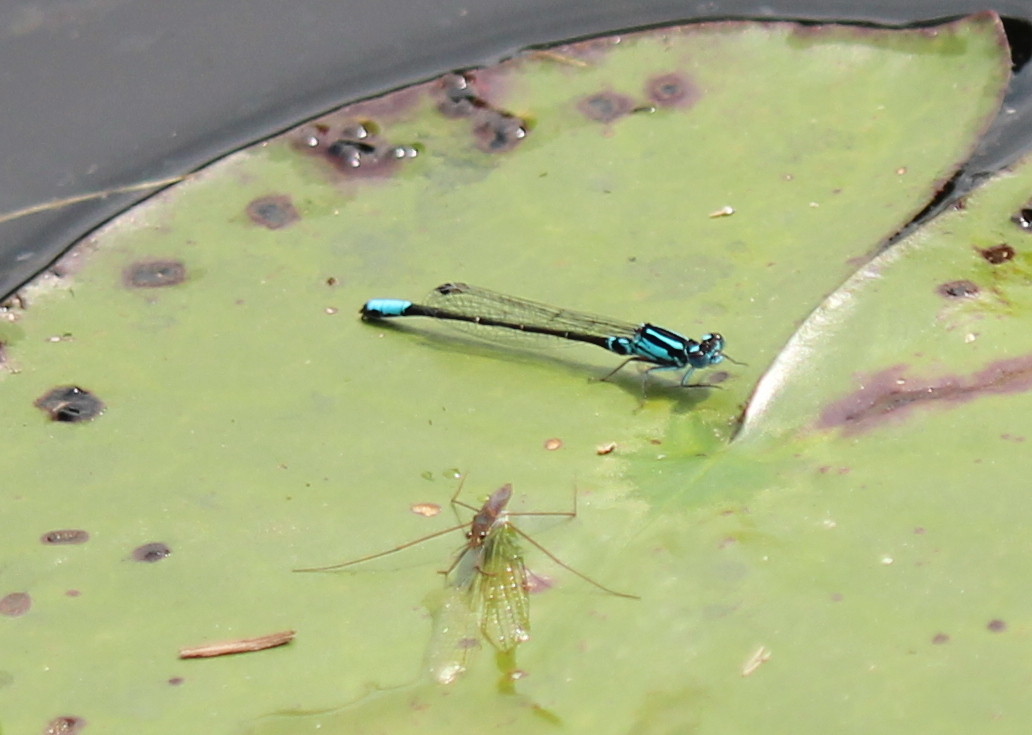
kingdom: Animalia
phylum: Arthropoda
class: Insecta
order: Odonata
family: Coenagrionidae
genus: Ischnura
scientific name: Ischnura kellicotti
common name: Lilypad forktail
